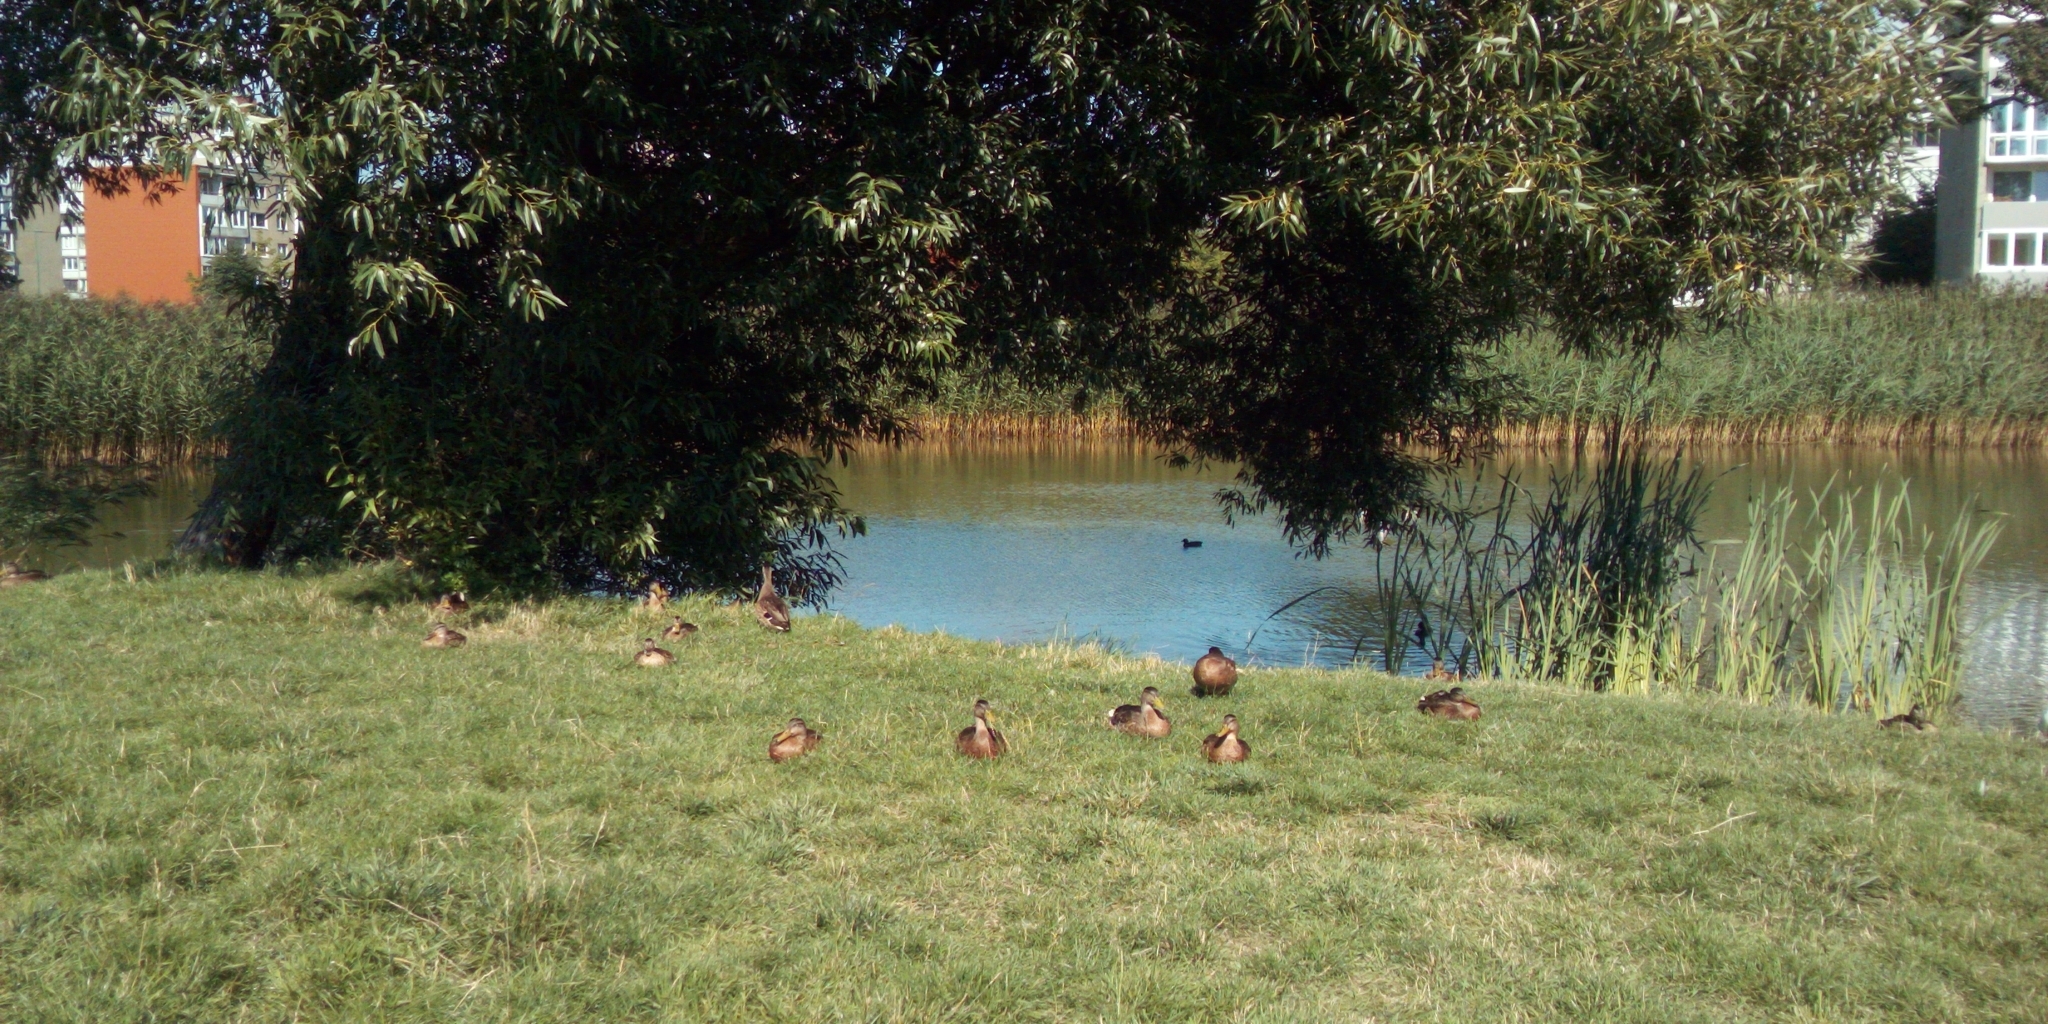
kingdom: Animalia
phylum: Chordata
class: Aves
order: Anseriformes
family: Anatidae
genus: Anas
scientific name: Anas platyrhynchos
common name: Mallard
